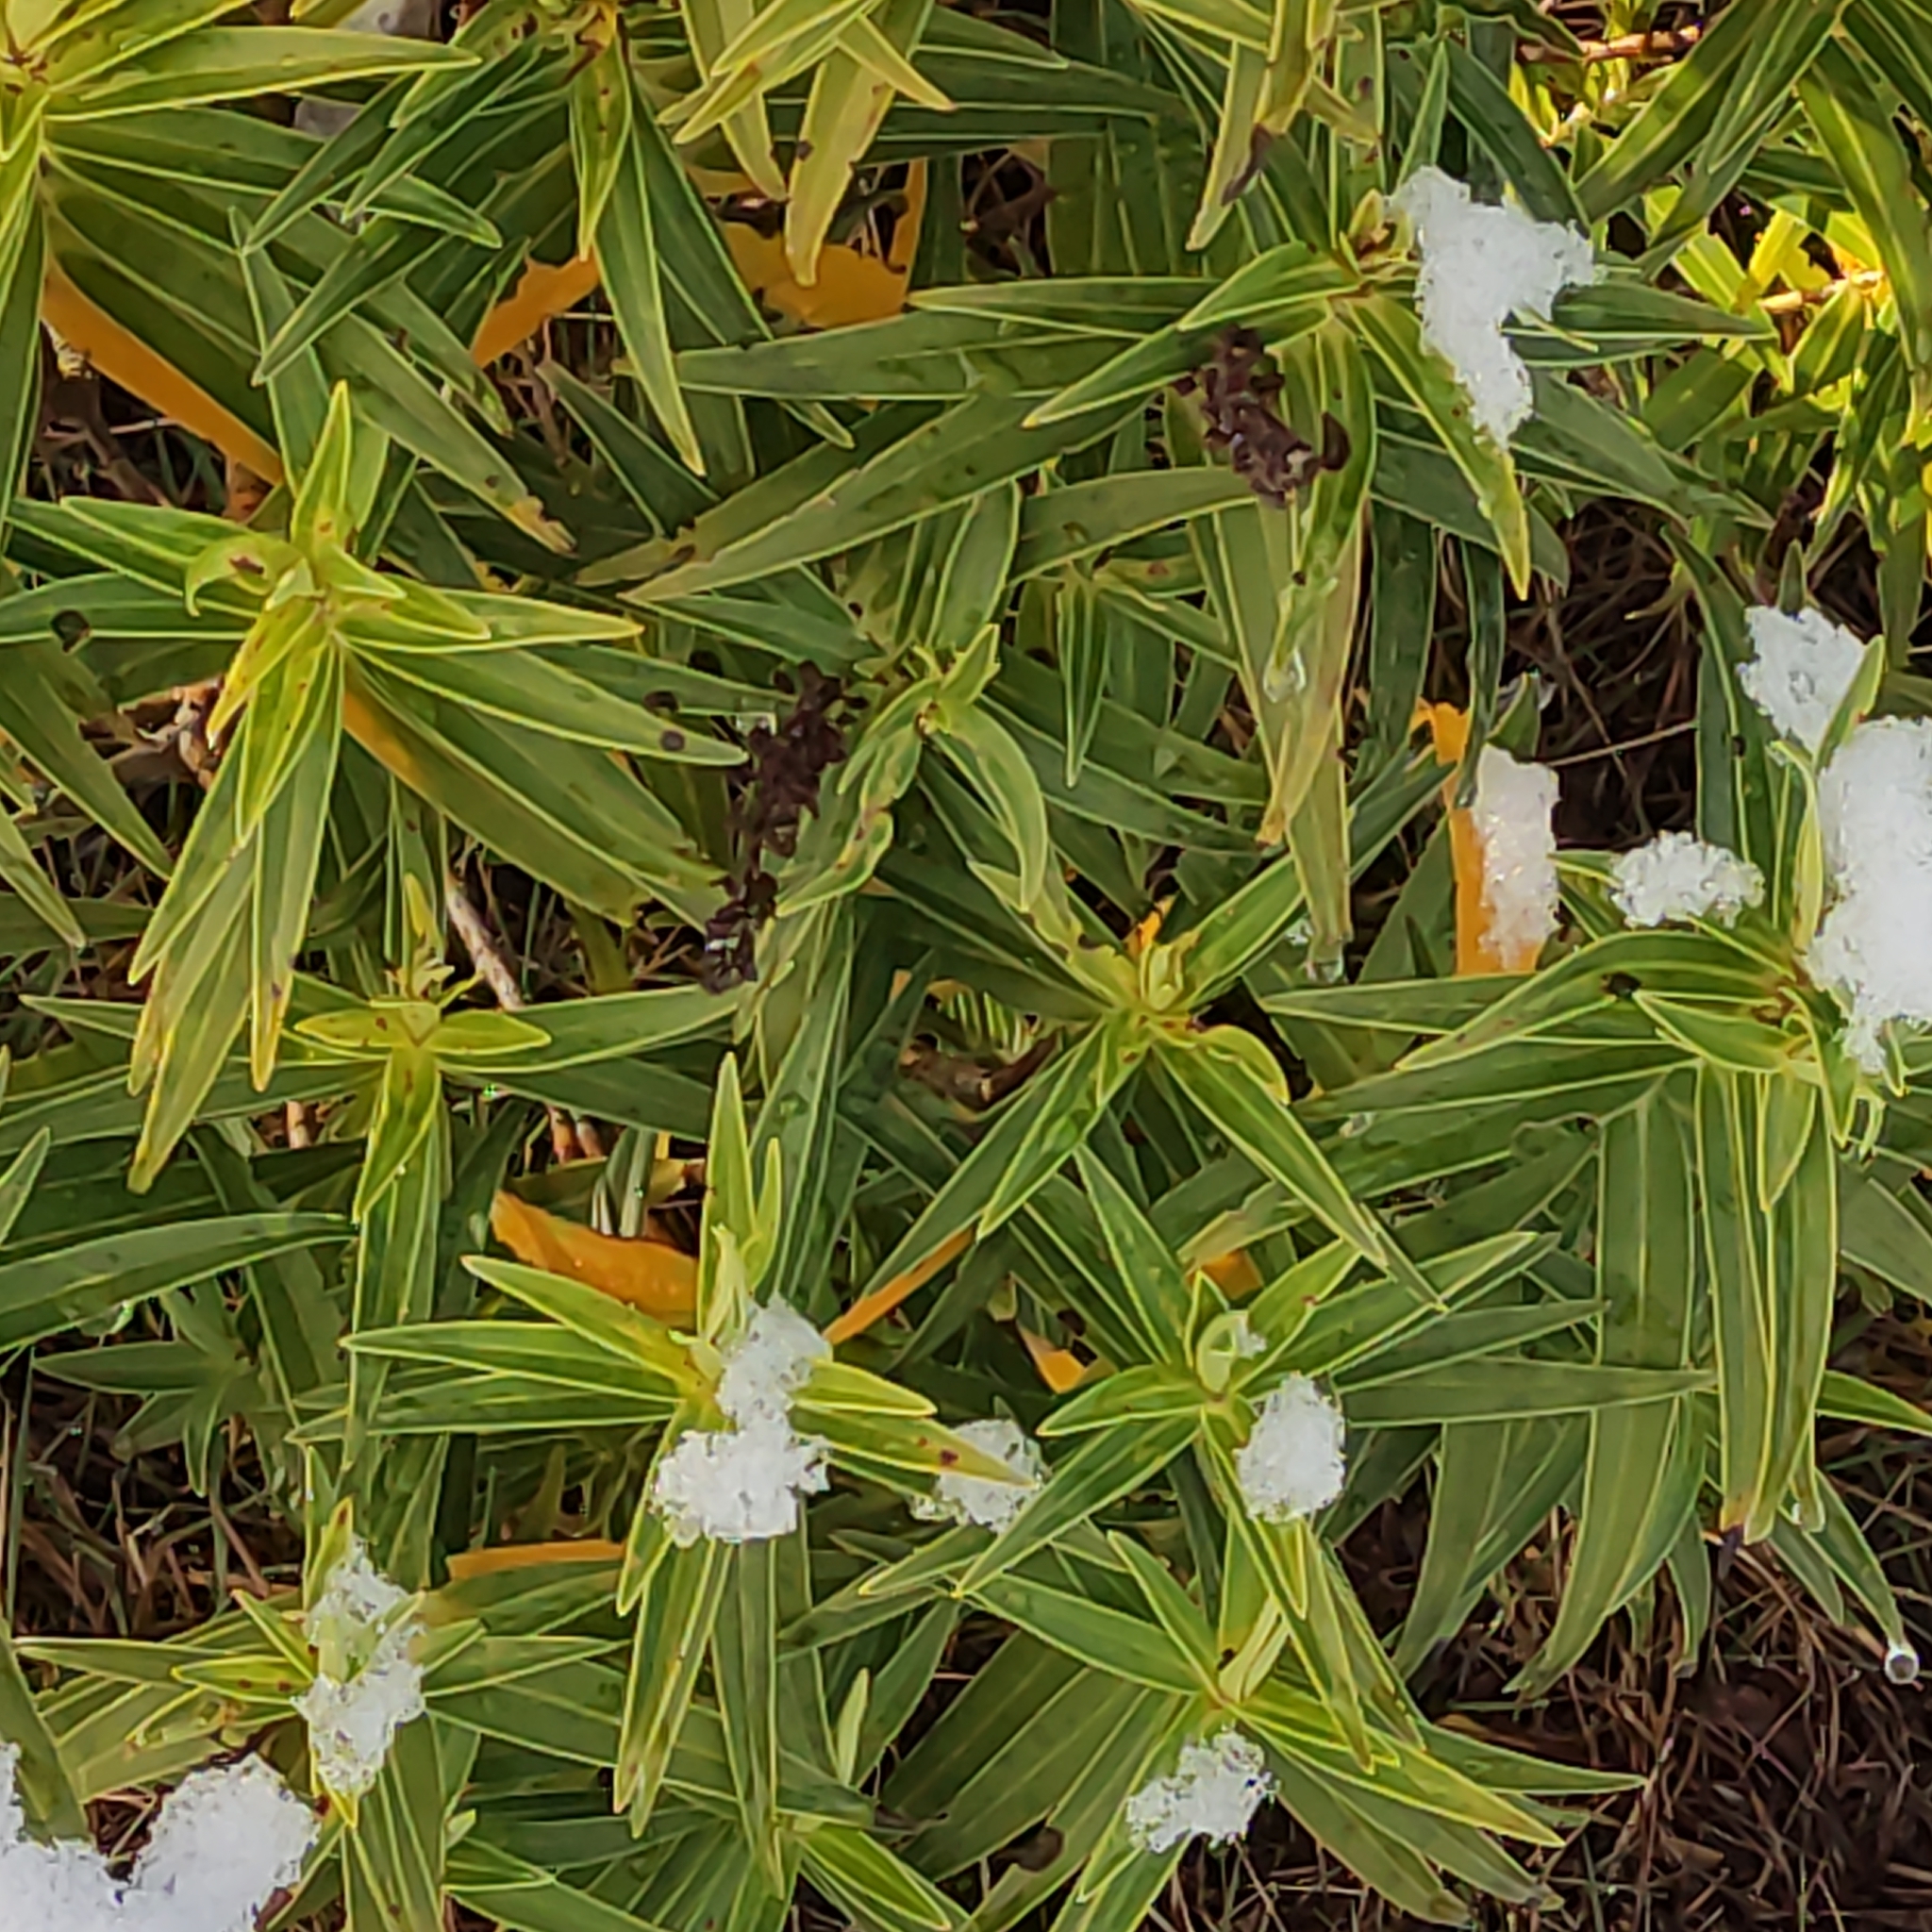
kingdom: Plantae
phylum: Tracheophyta
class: Magnoliopsida
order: Lamiales
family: Plantaginaceae
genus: Veronica
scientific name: Veronica salicifolia
